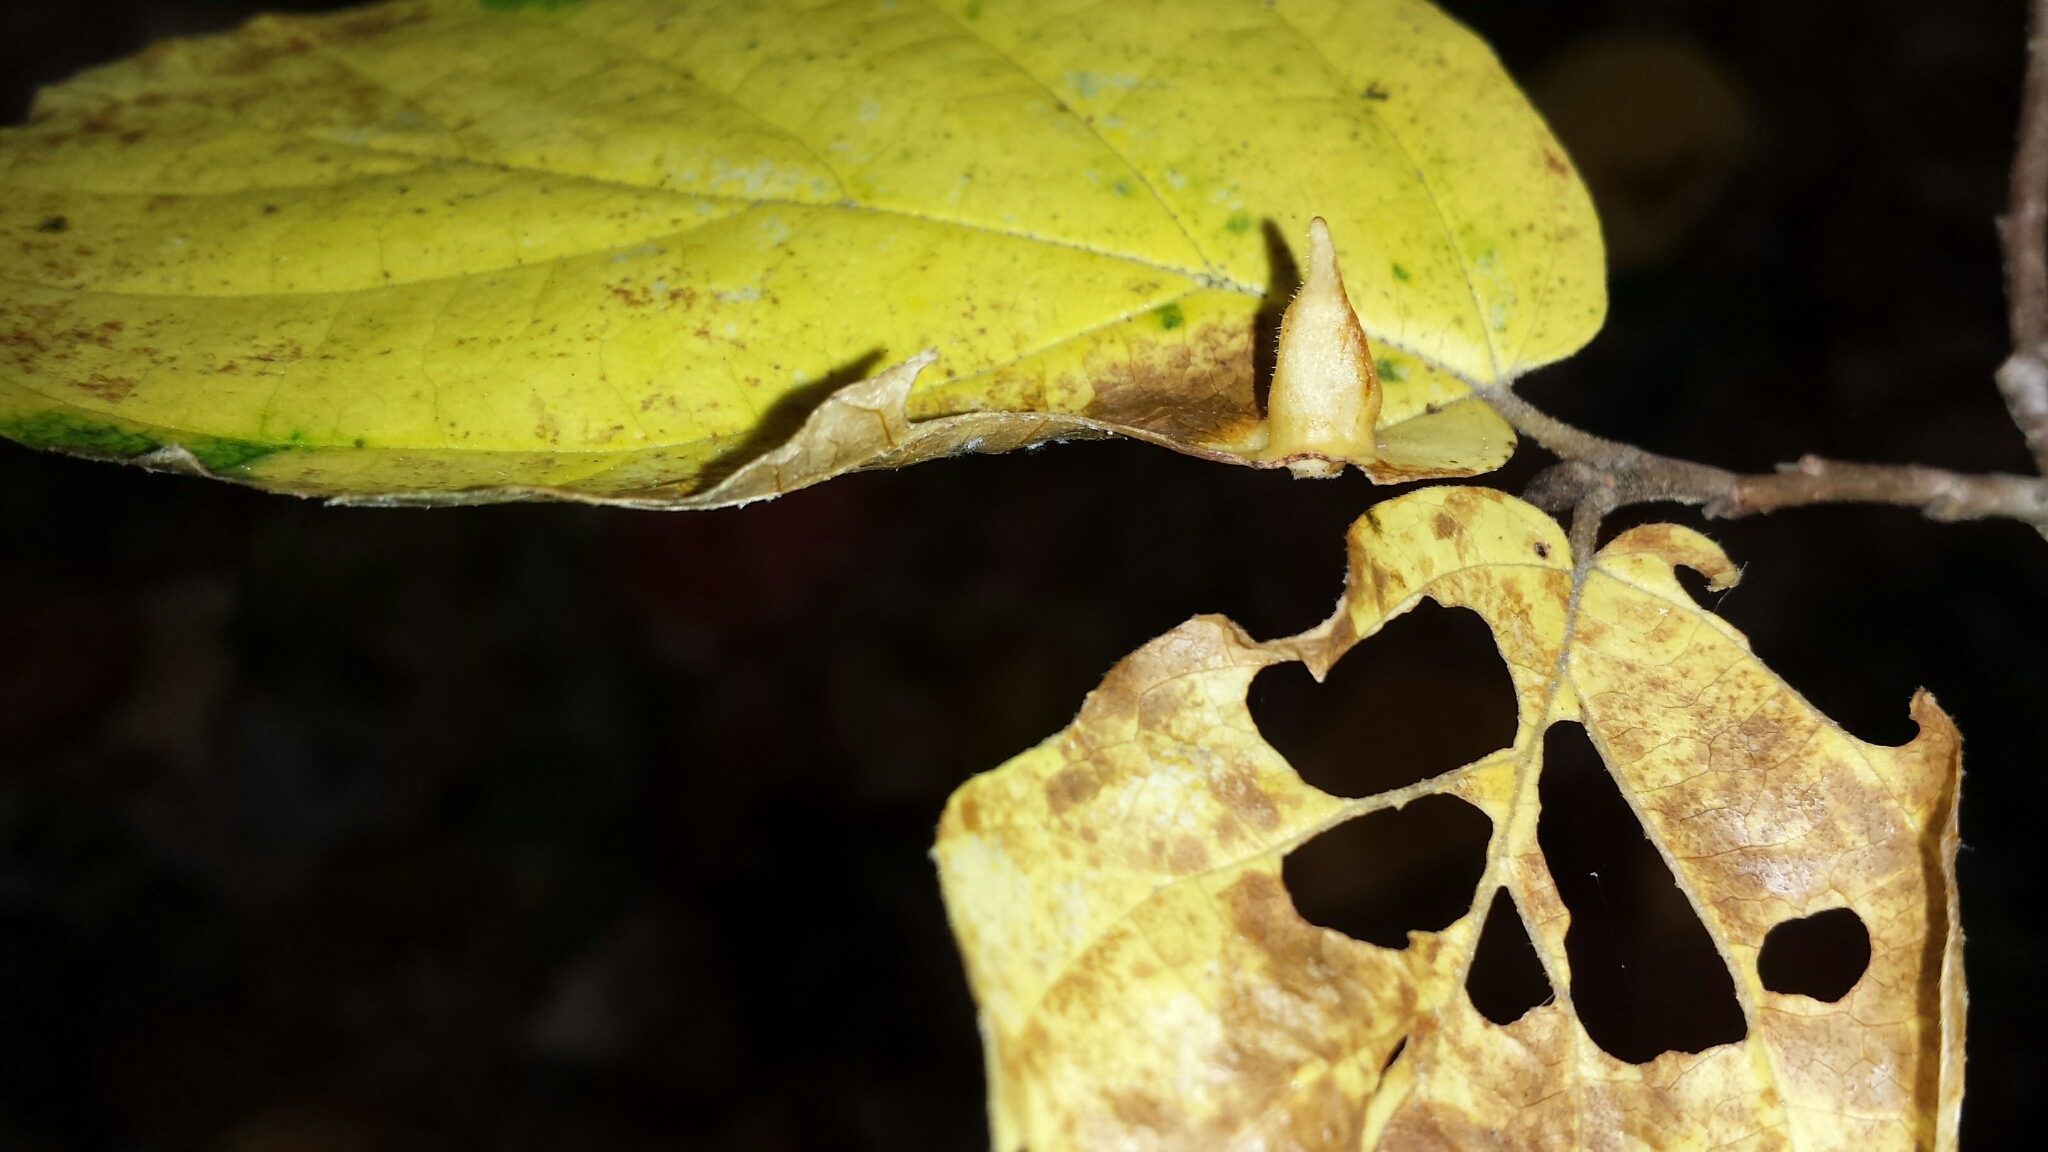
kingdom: Animalia
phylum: Arthropoda
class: Insecta
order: Hemiptera
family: Aphididae
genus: Hormaphis
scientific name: Hormaphis hamamelidis
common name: Witch-hazel cone gall aphid
